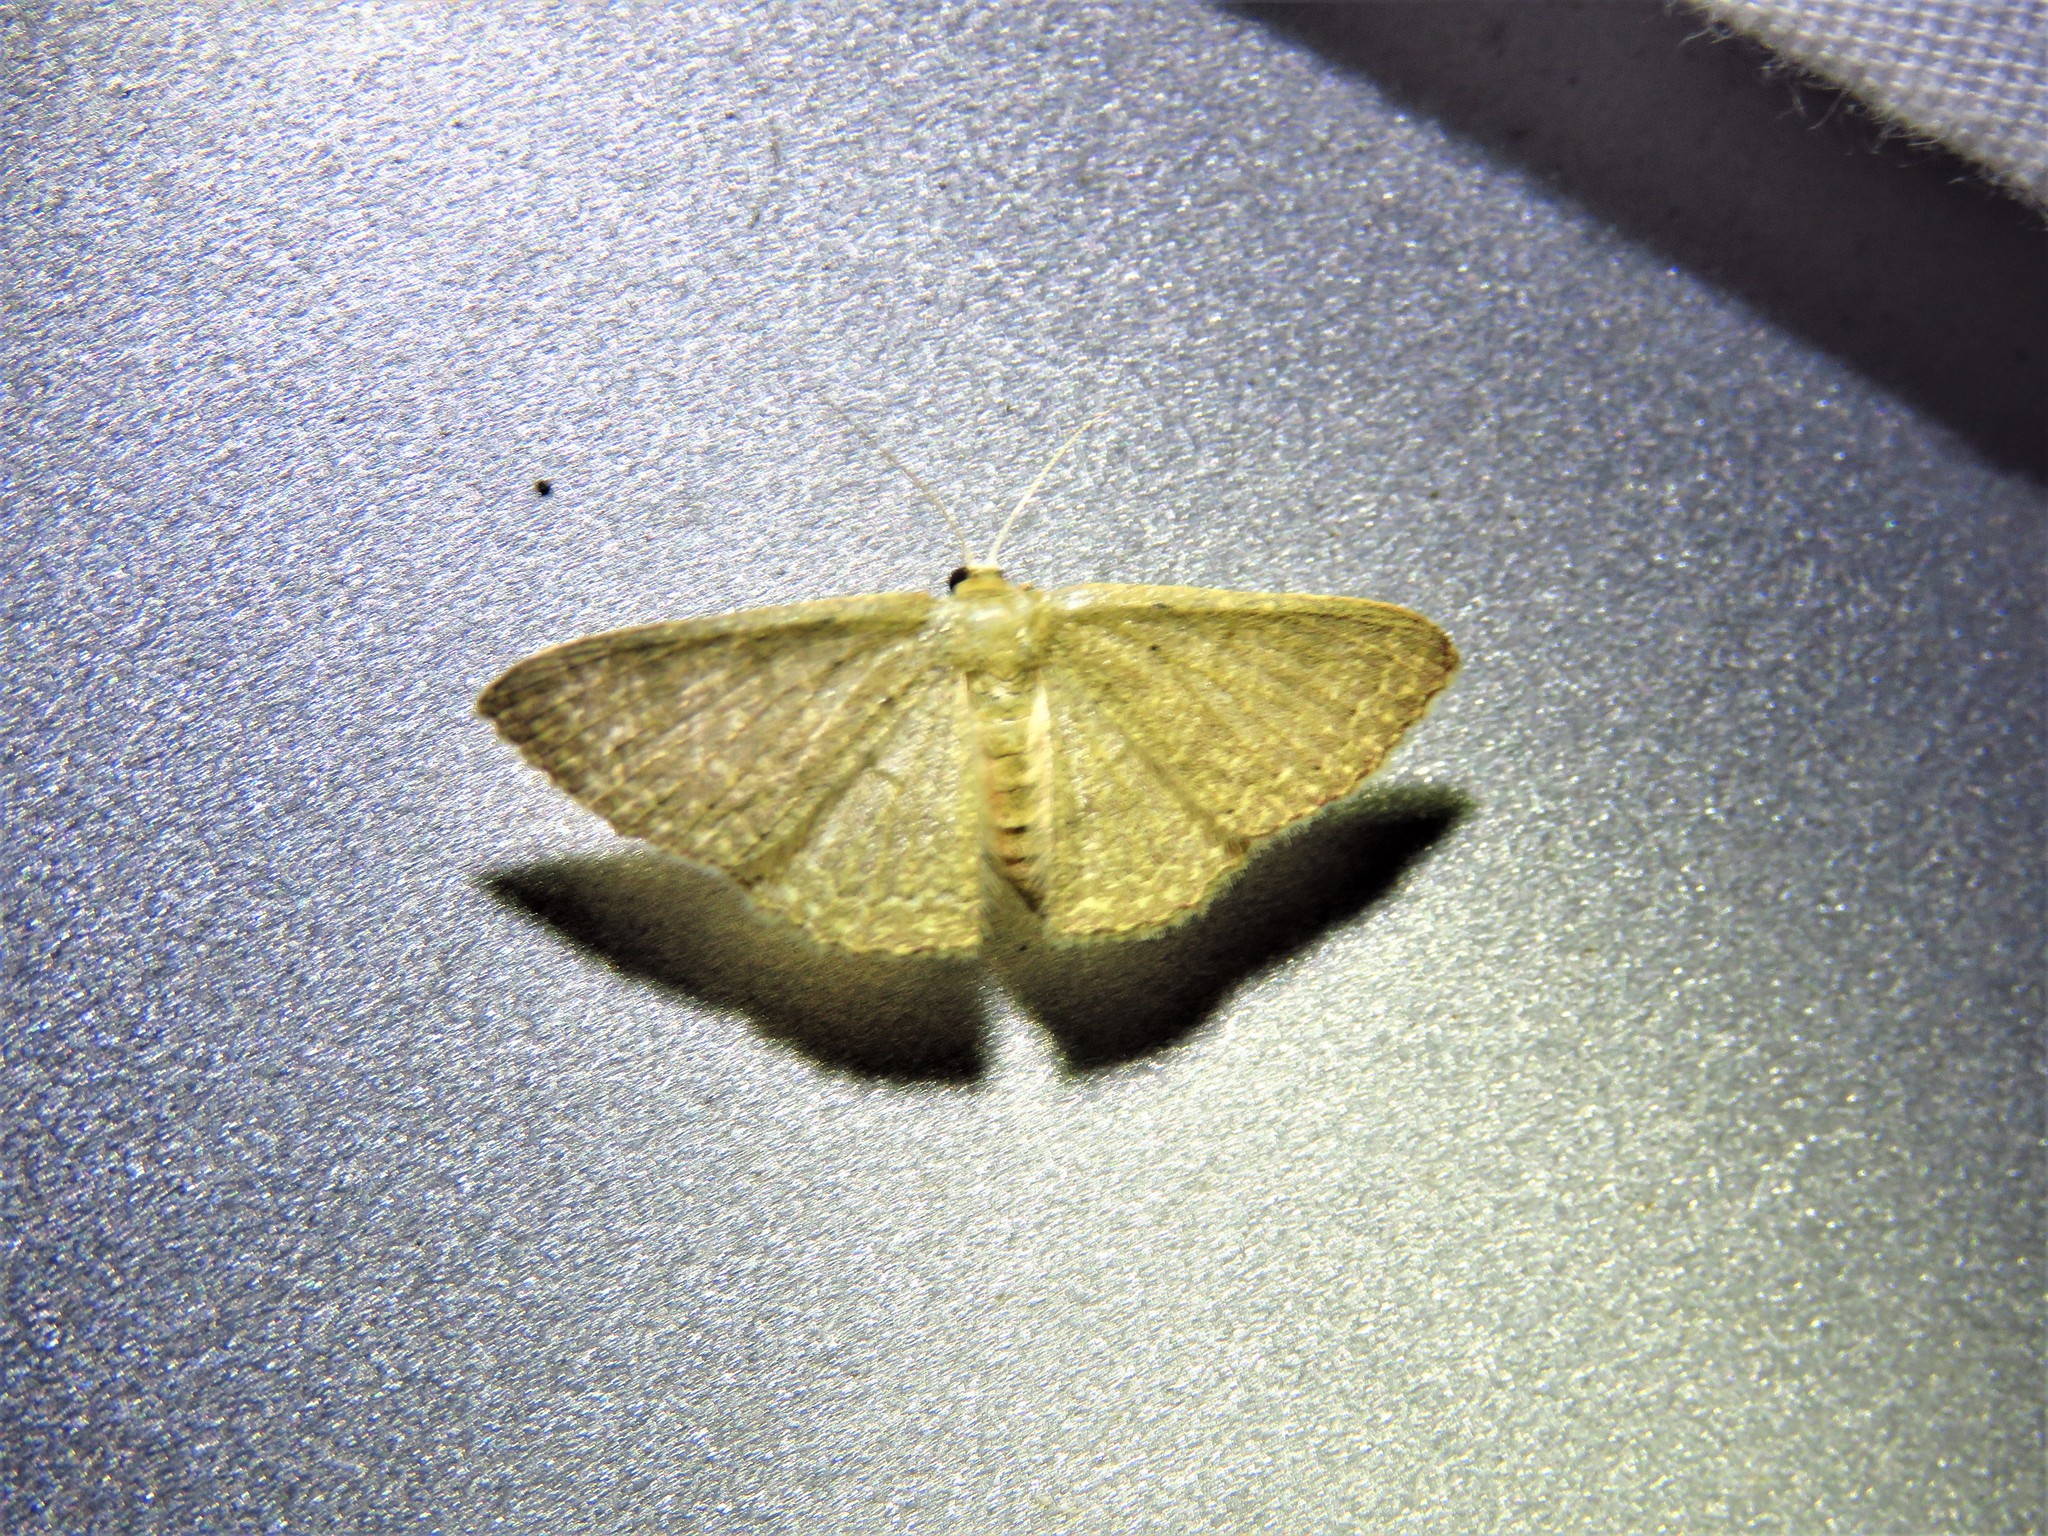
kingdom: Animalia
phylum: Arthropoda
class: Insecta
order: Lepidoptera
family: Geometridae
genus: Pleuroprucha
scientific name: Pleuroprucha insulsaria
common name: Common tan wave
